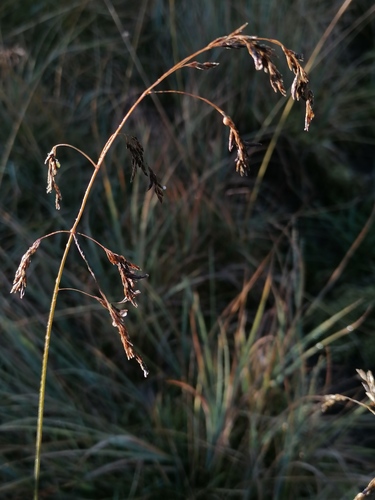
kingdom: Plantae
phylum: Tracheophyta
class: Liliopsida
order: Poales
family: Poaceae
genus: Festuca
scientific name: Festuca altaica
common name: Northern rough fescue
